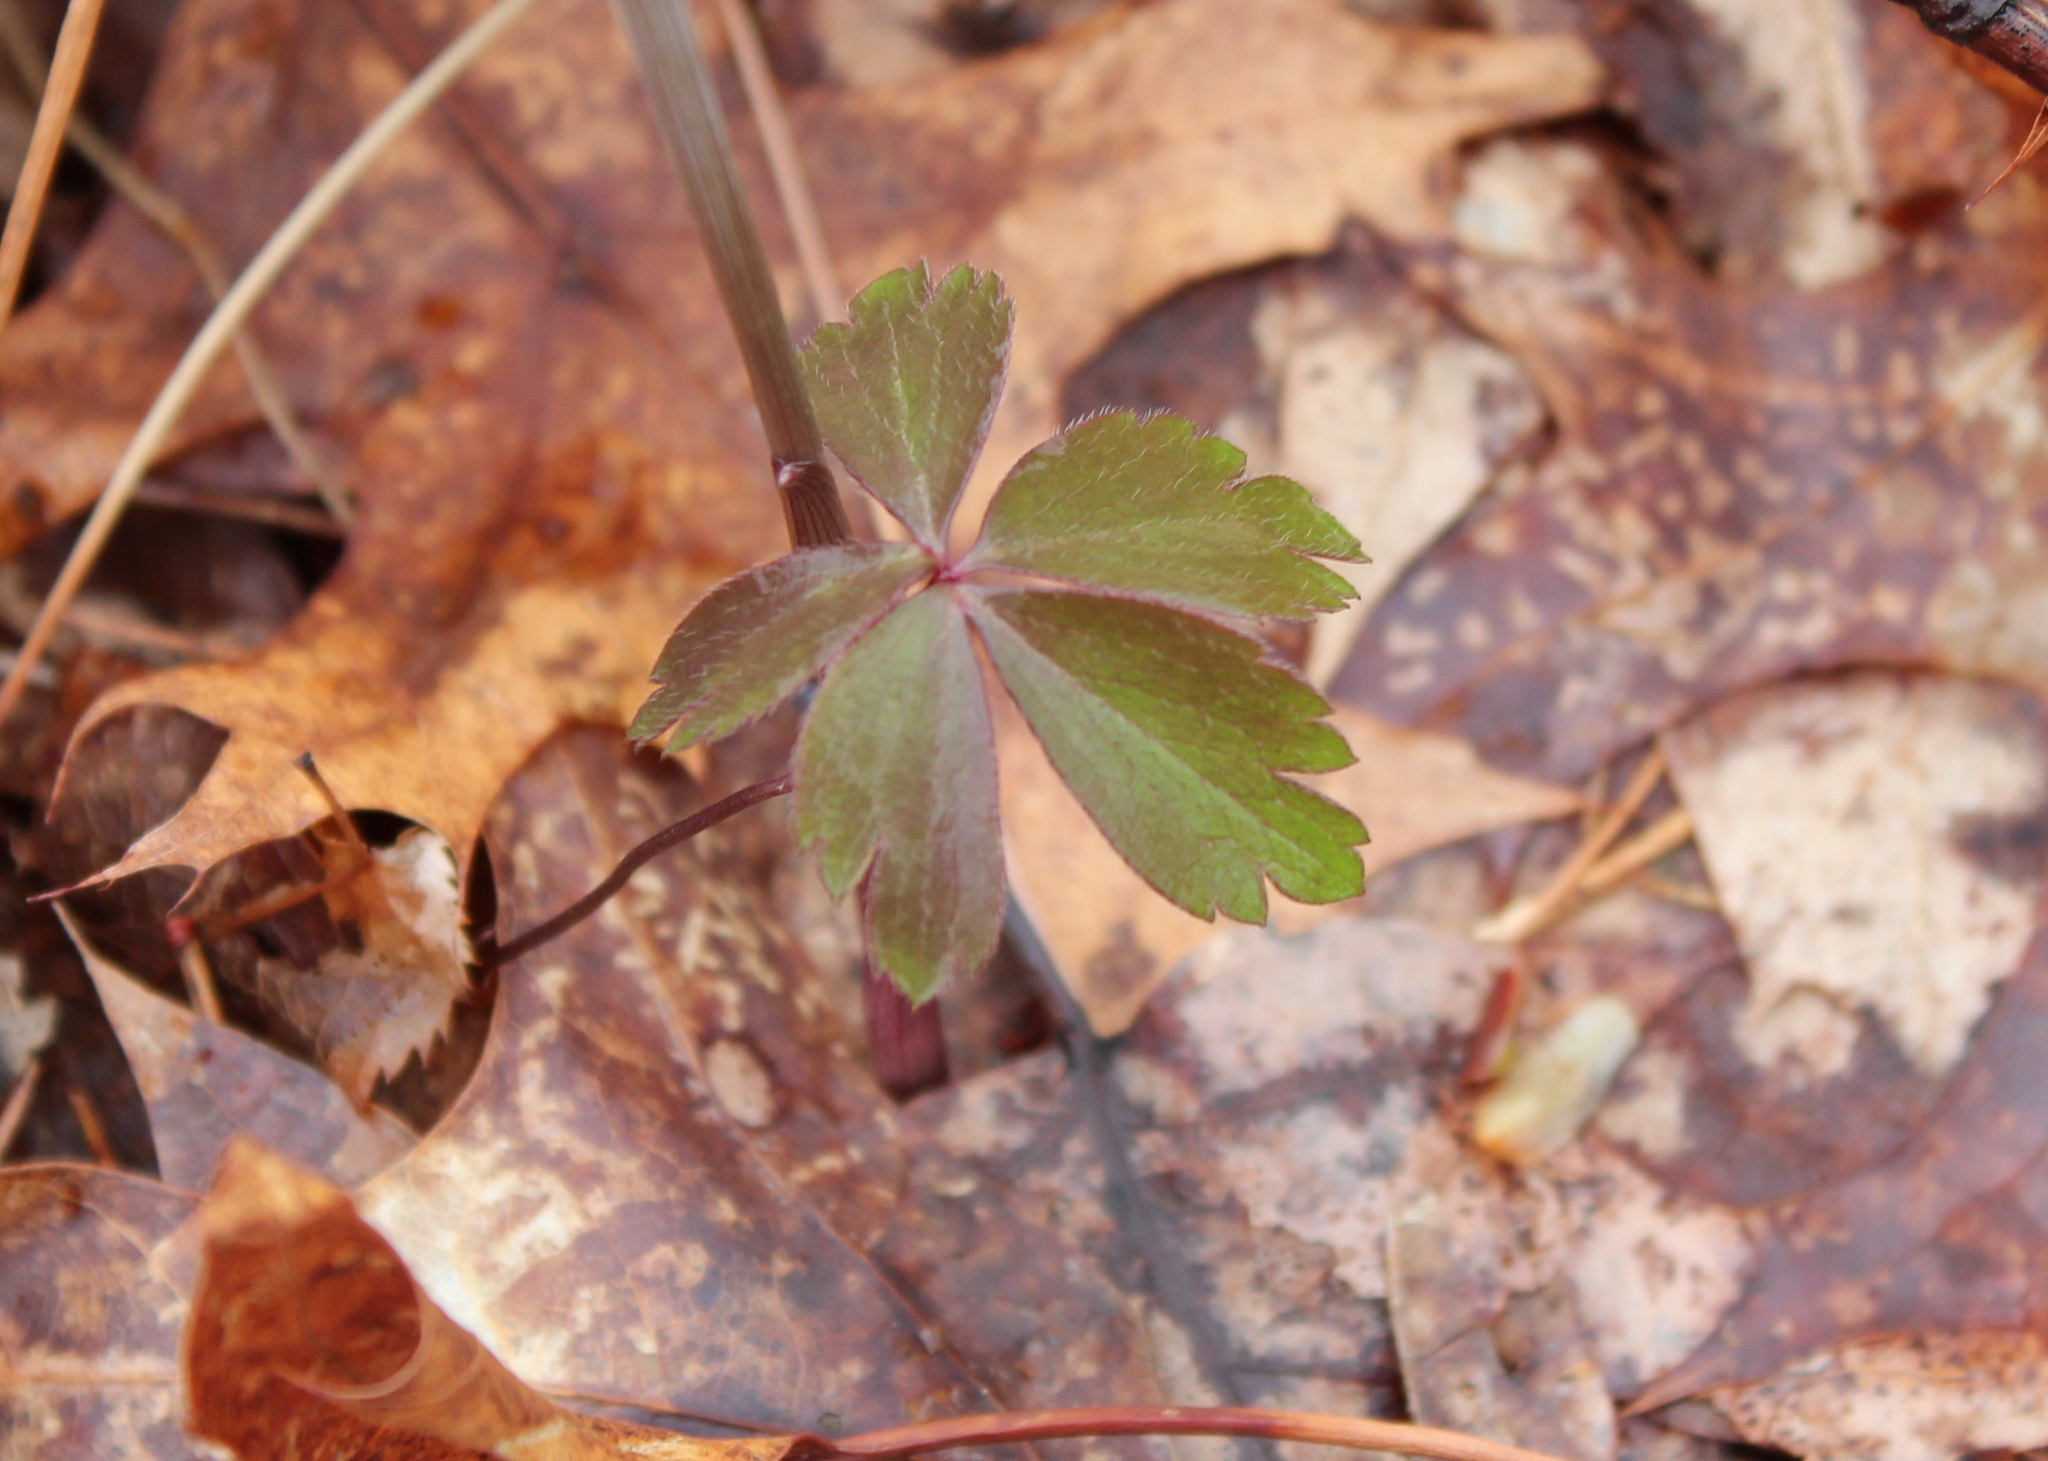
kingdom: Plantae
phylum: Tracheophyta
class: Magnoliopsida
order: Ranunculales
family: Ranunculaceae
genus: Anemone
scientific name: Anemone quinquefolia
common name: Wood anemone
